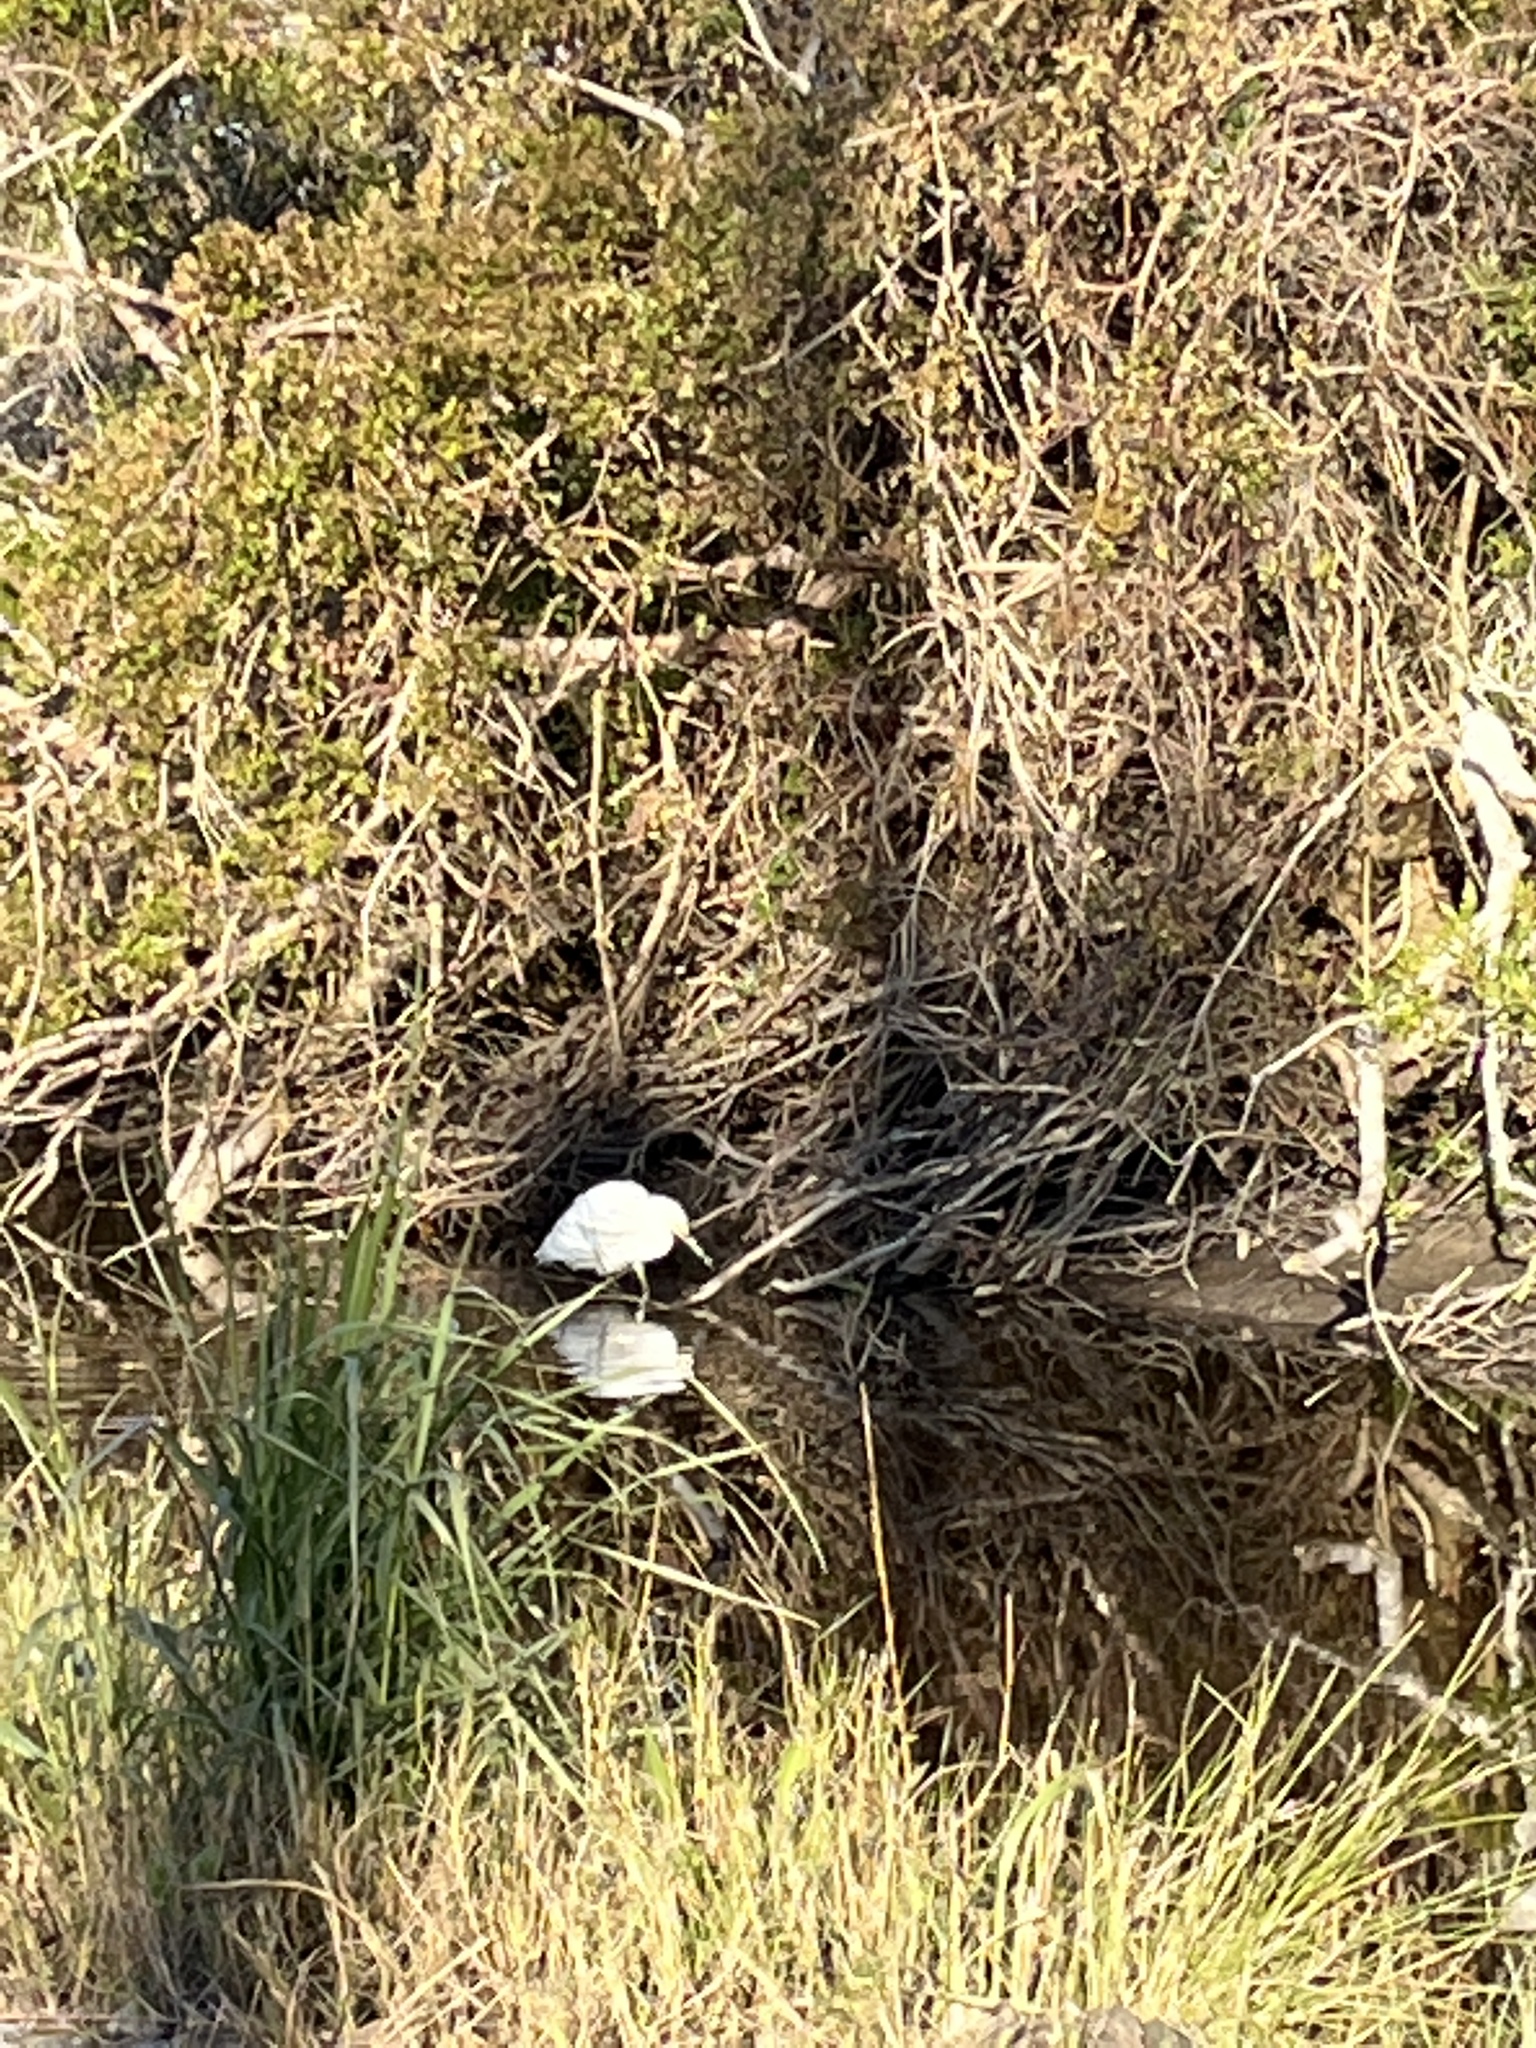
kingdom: Animalia
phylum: Chordata
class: Aves
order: Pelecaniformes
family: Ardeidae
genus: Egretta
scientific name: Egretta thula
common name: Snowy egret
